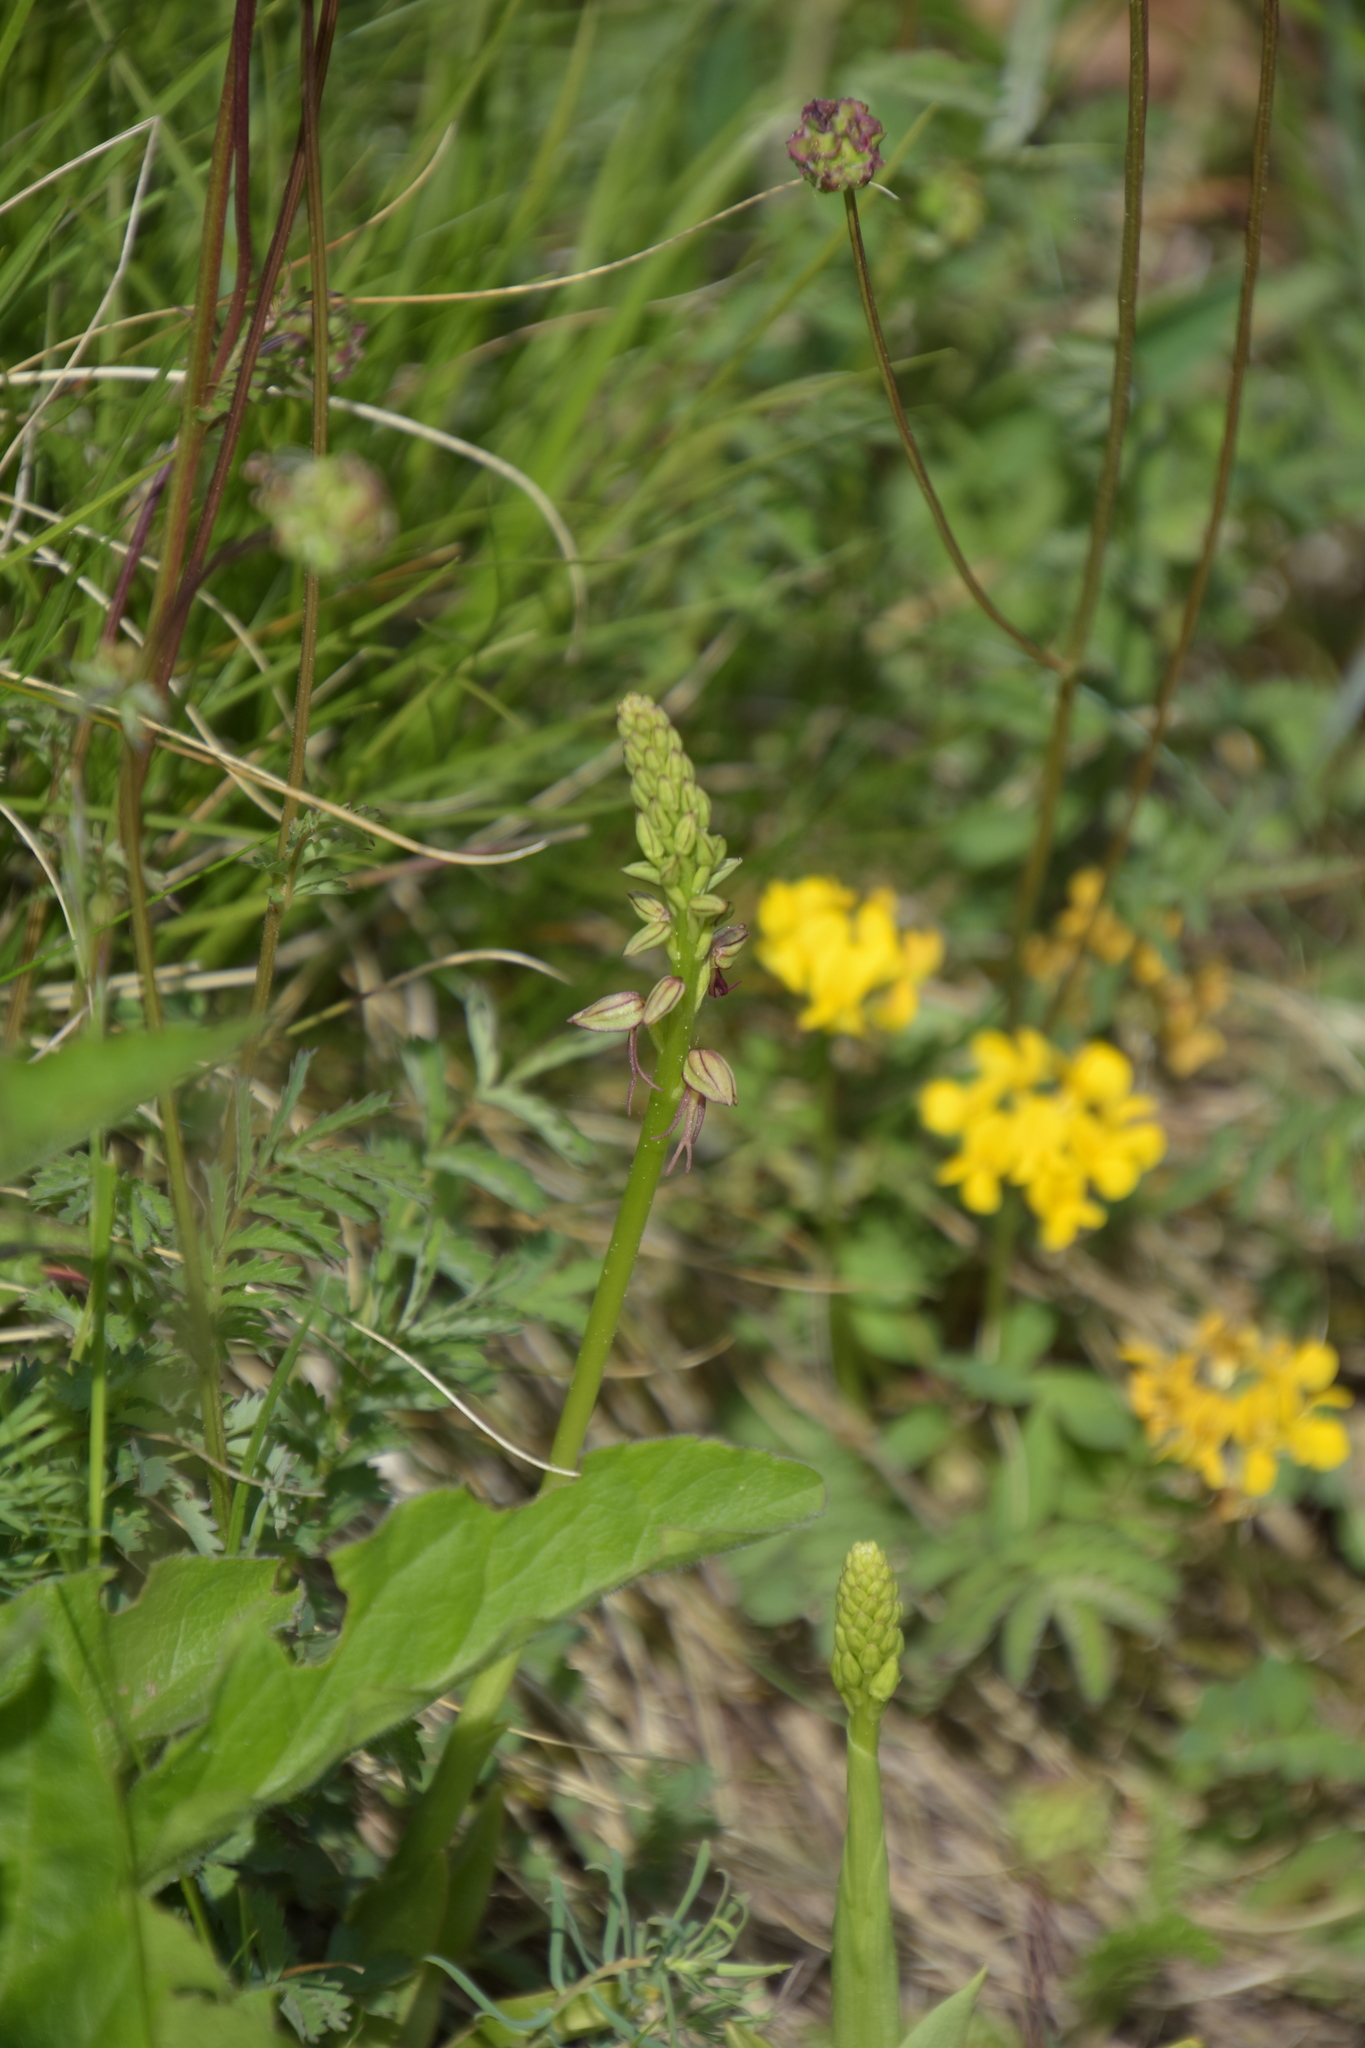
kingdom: Plantae
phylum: Tracheophyta
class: Liliopsida
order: Asparagales
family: Orchidaceae
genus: Orchis
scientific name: Orchis anthropophora
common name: Man orchid
